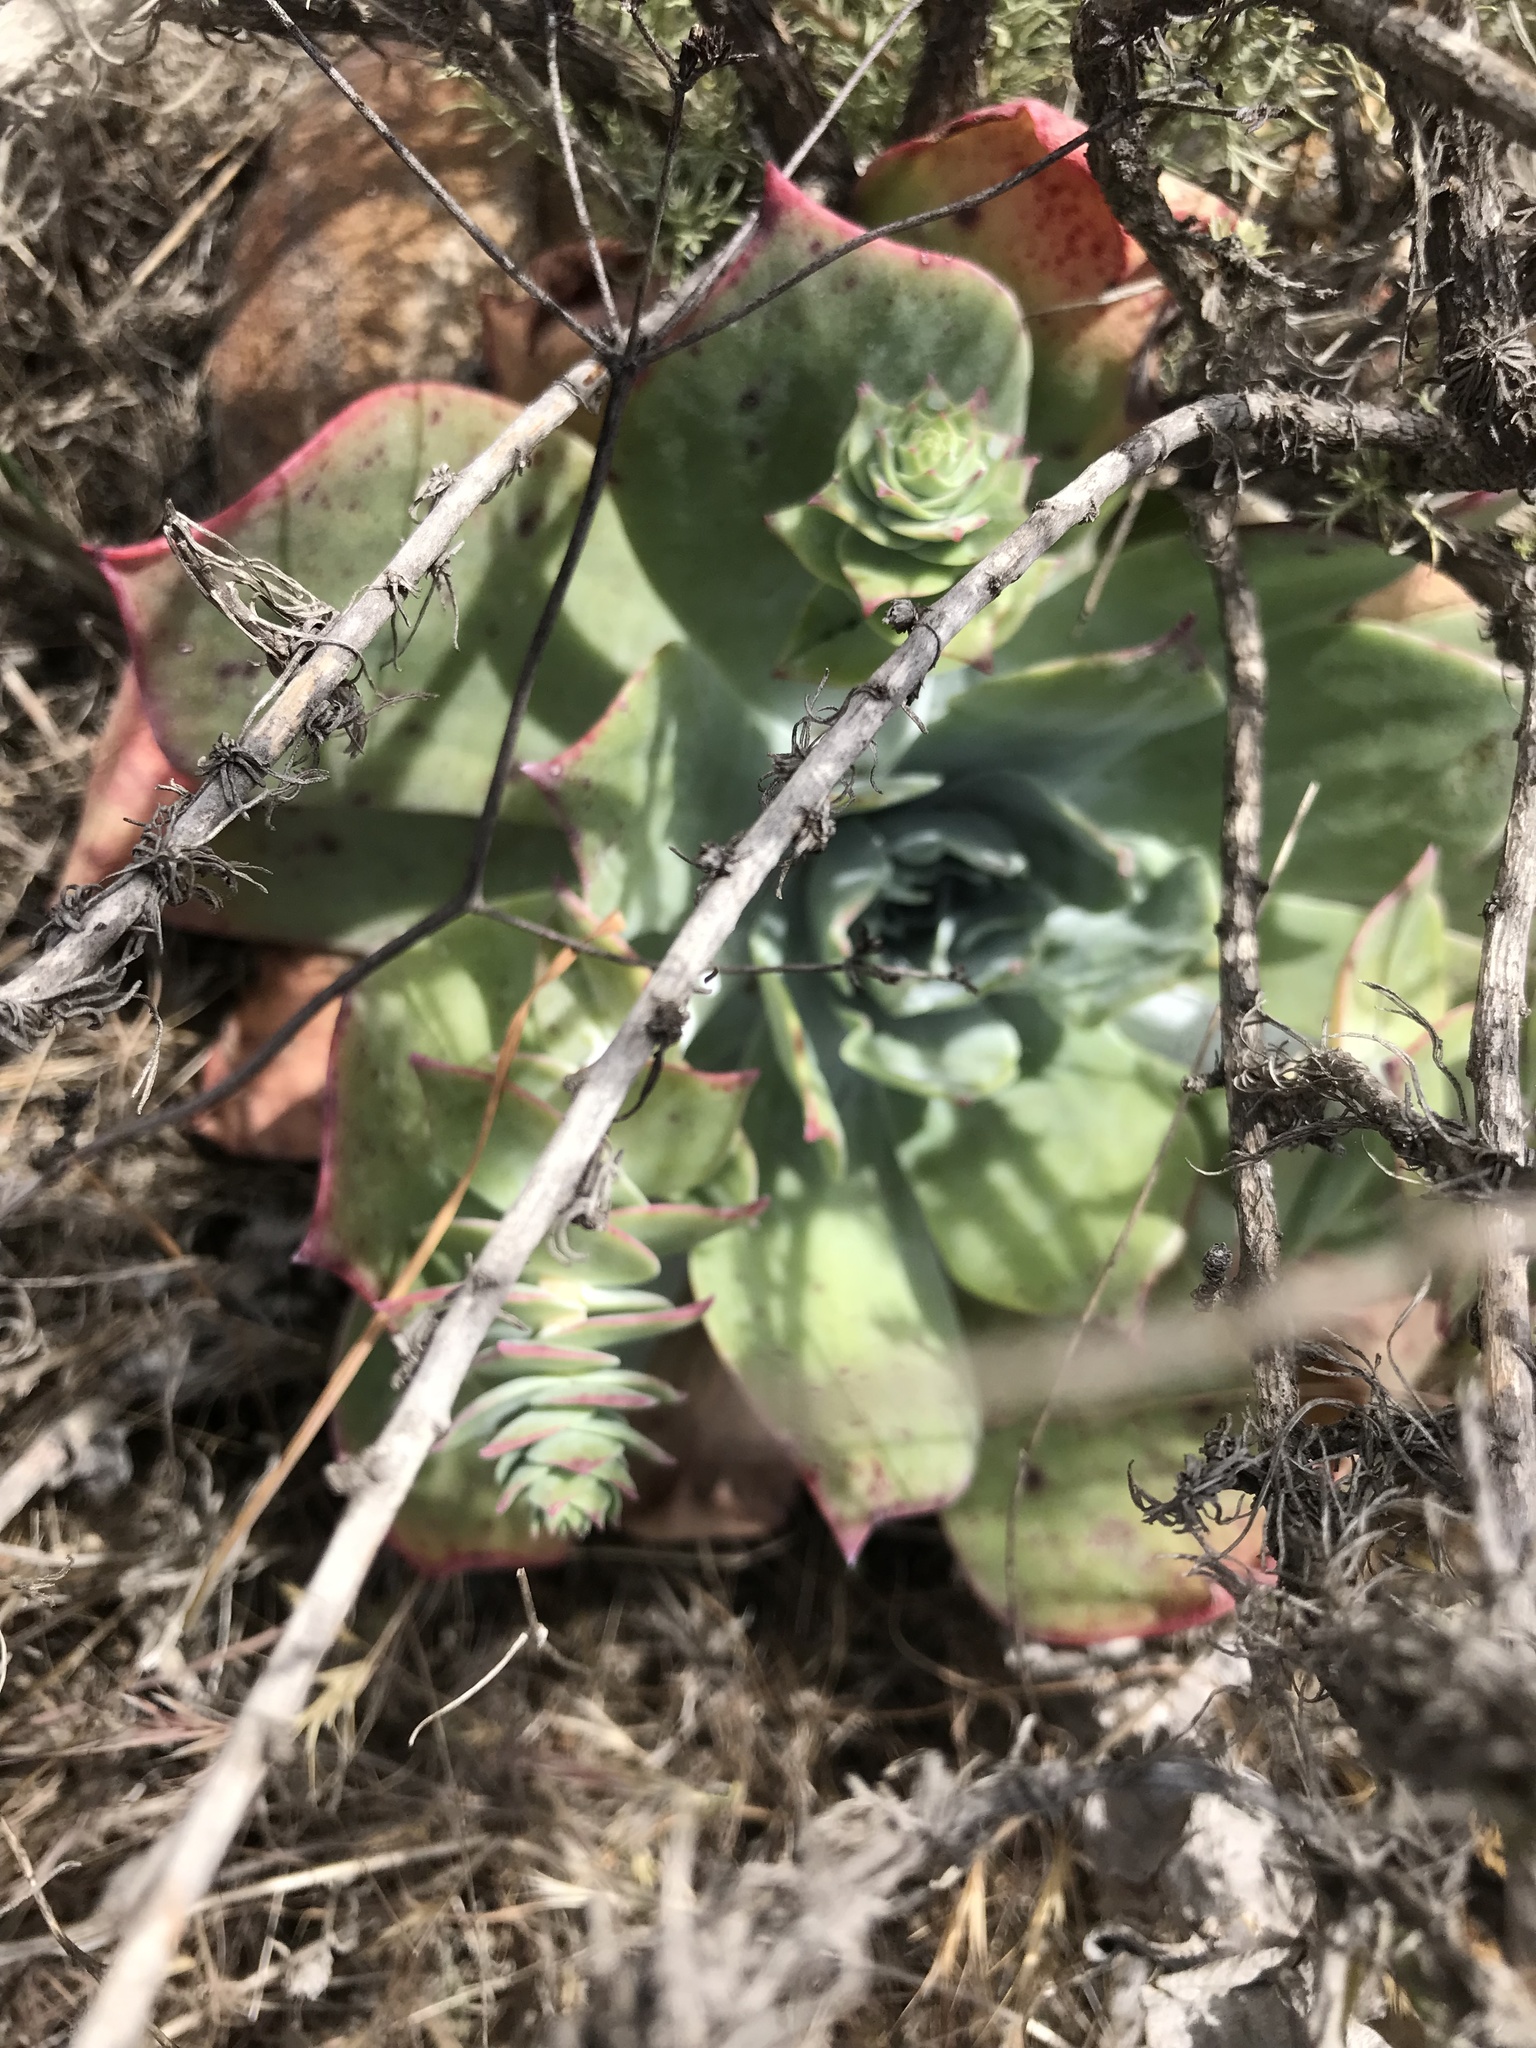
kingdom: Plantae
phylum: Tracheophyta
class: Magnoliopsida
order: Saxifragales
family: Crassulaceae
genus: Dudleya
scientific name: Dudleya pulverulenta
